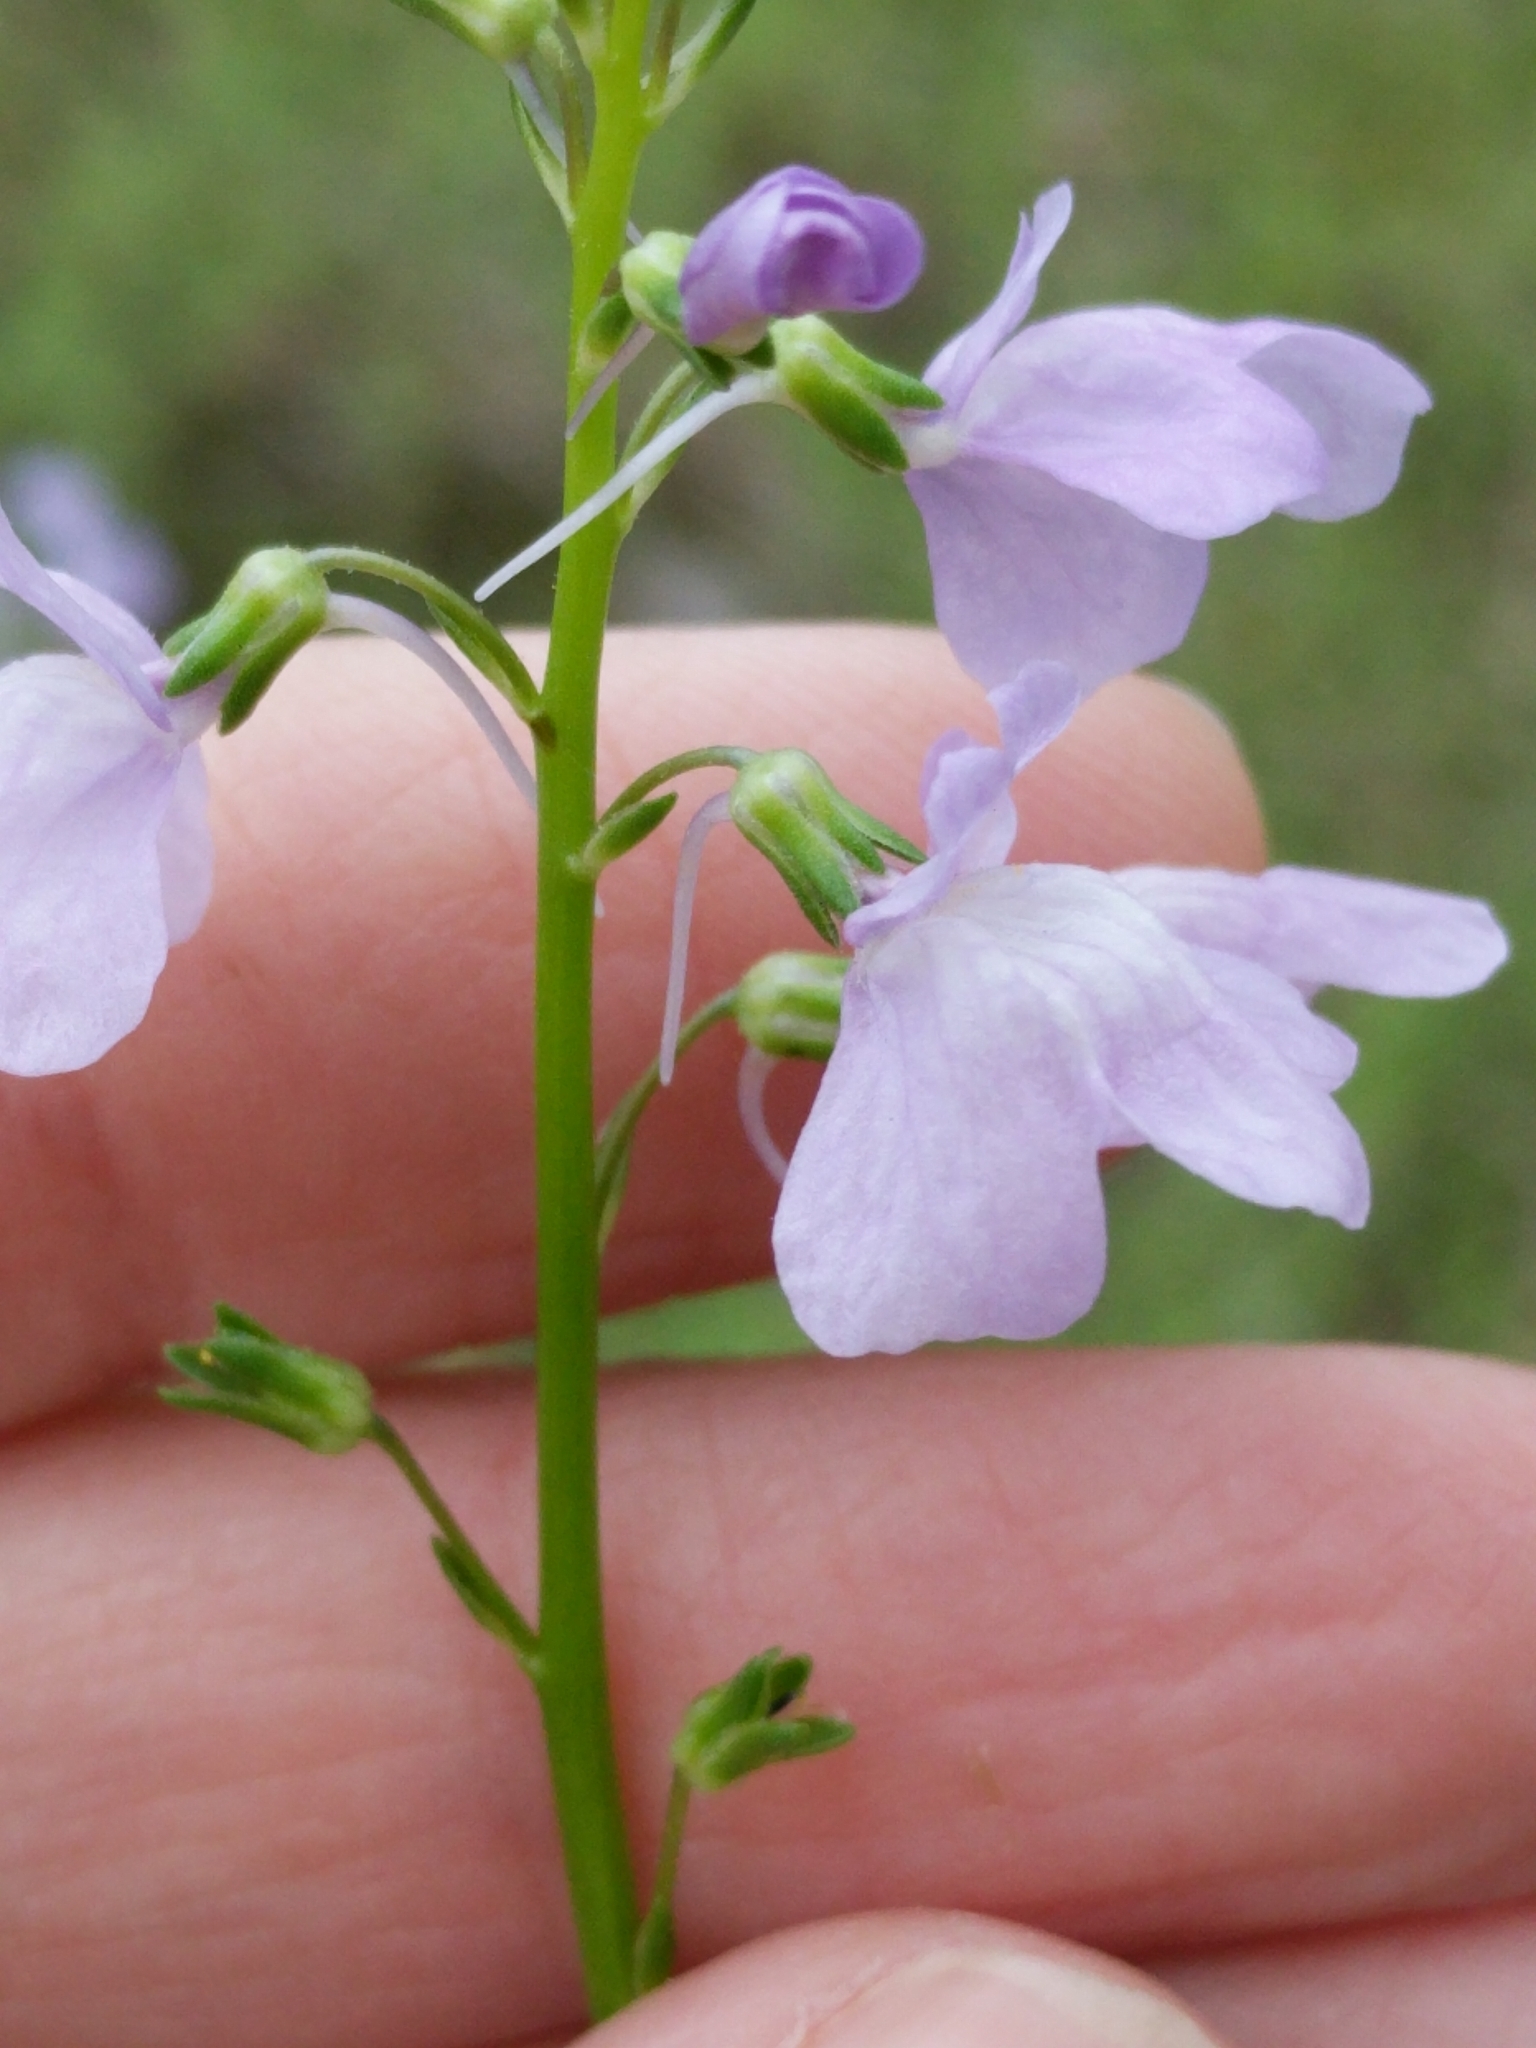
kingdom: Plantae
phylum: Tracheophyta
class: Magnoliopsida
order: Lamiales
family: Plantaginaceae
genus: Nuttallanthus
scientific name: Nuttallanthus texanus
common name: Texas toadflax
